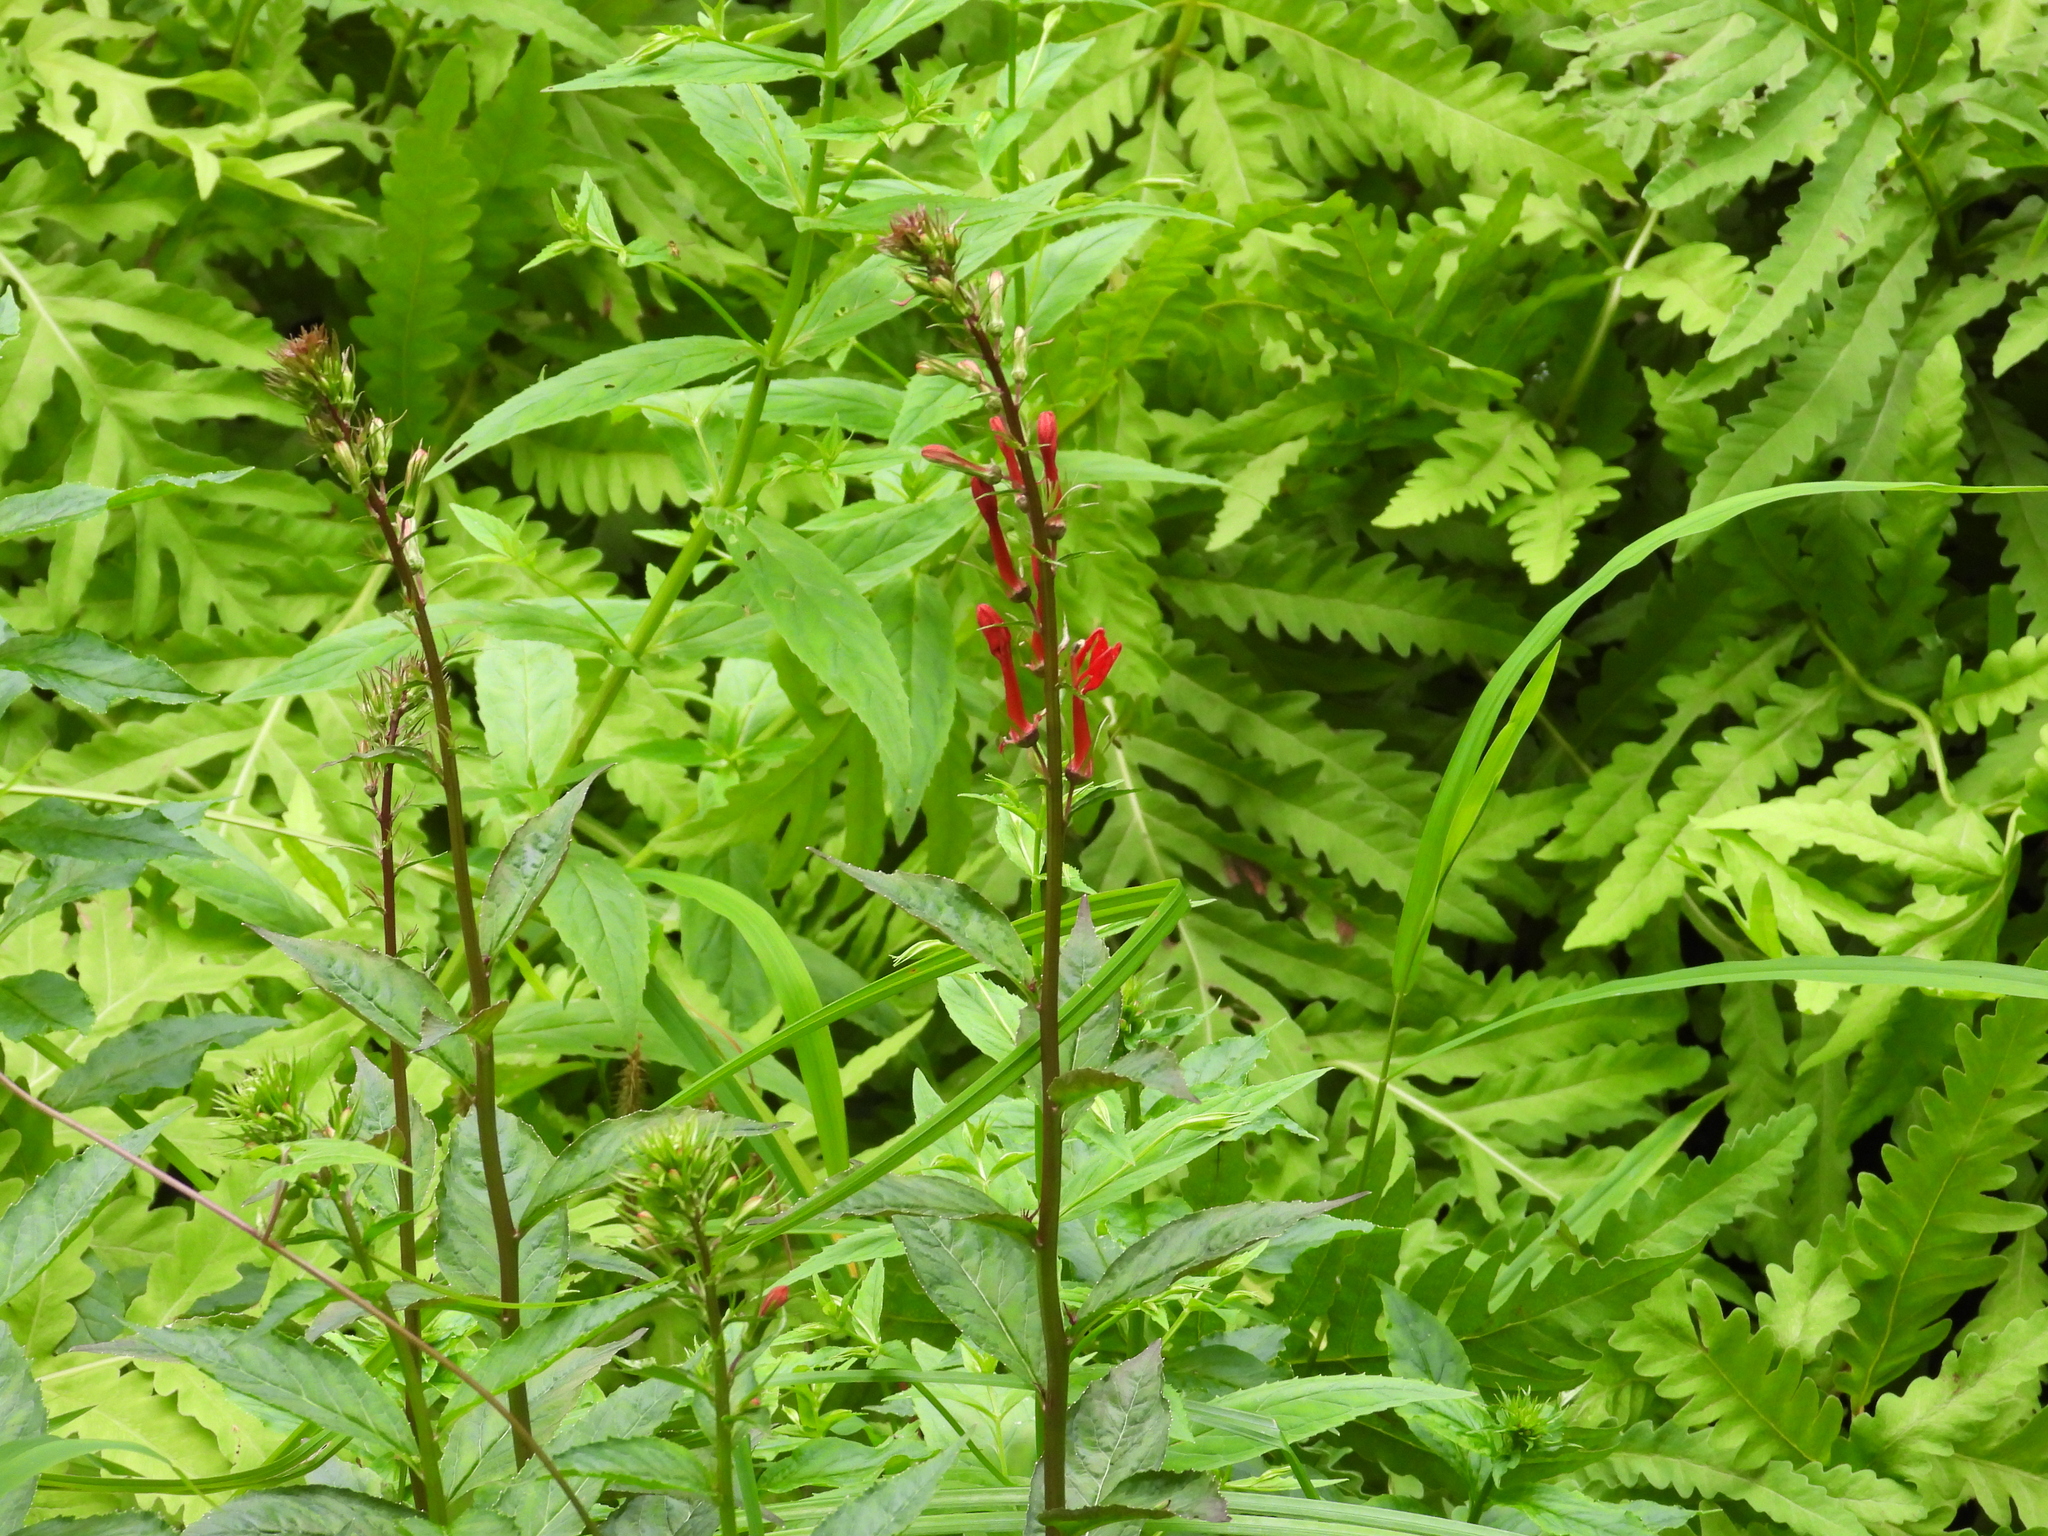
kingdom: Plantae
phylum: Tracheophyta
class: Magnoliopsida
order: Asterales
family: Campanulaceae
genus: Lobelia
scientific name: Lobelia cardinalis
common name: Cardinal flower
